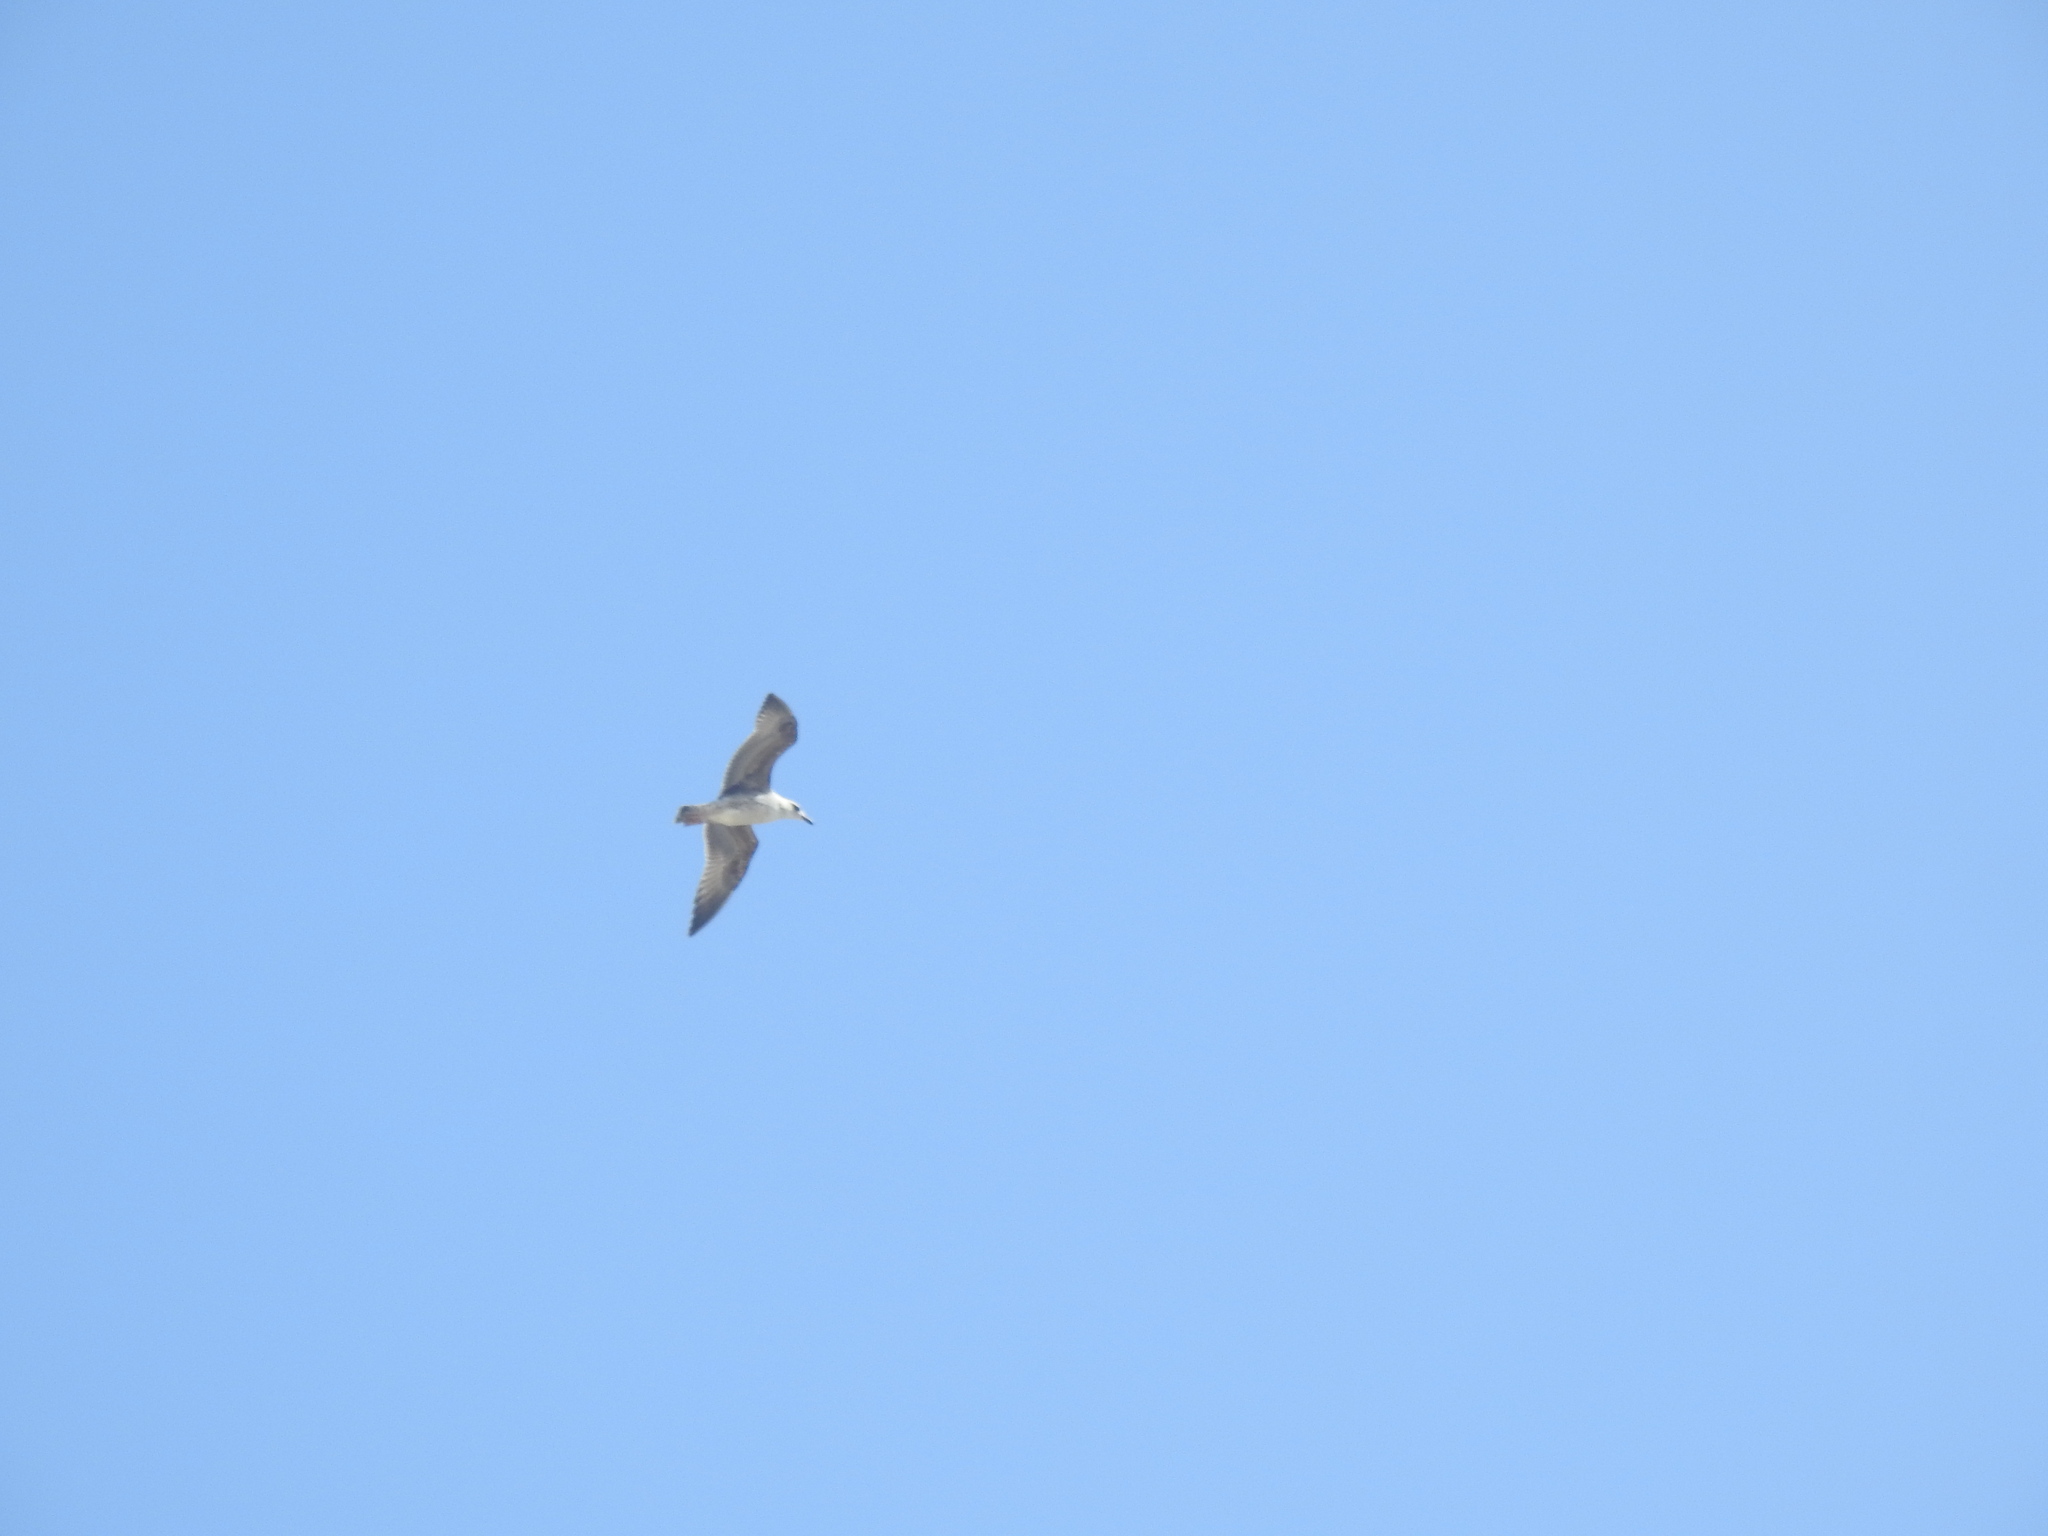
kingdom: Animalia
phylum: Chordata
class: Aves
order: Charadriiformes
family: Laridae
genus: Larus
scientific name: Larus
